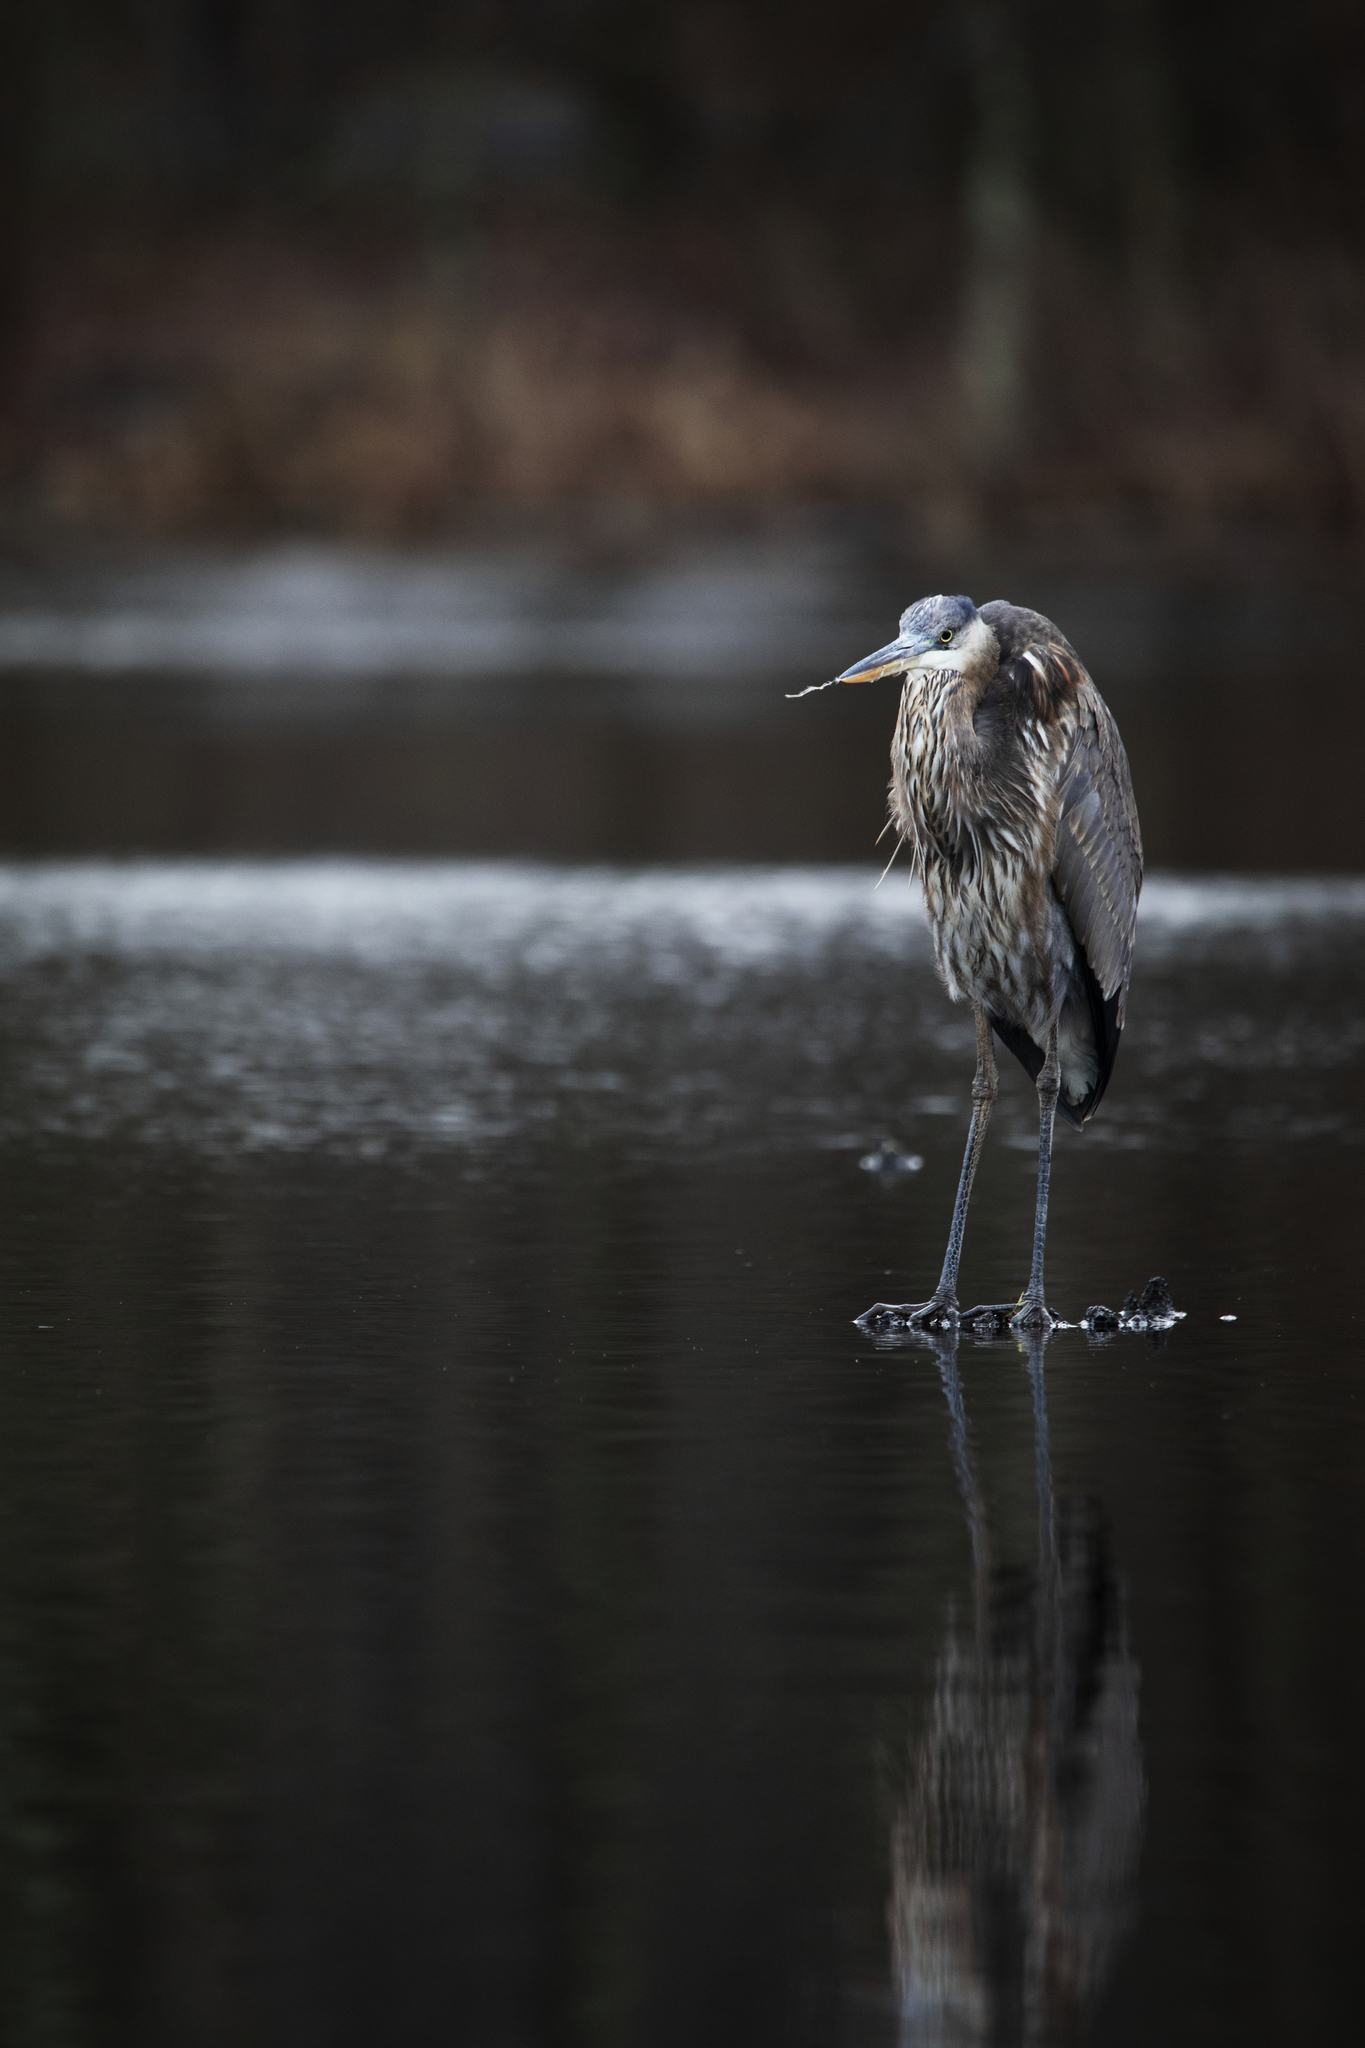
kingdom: Animalia
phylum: Chordata
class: Aves
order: Pelecaniformes
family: Ardeidae
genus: Ardea
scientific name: Ardea herodias
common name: Great blue heron
